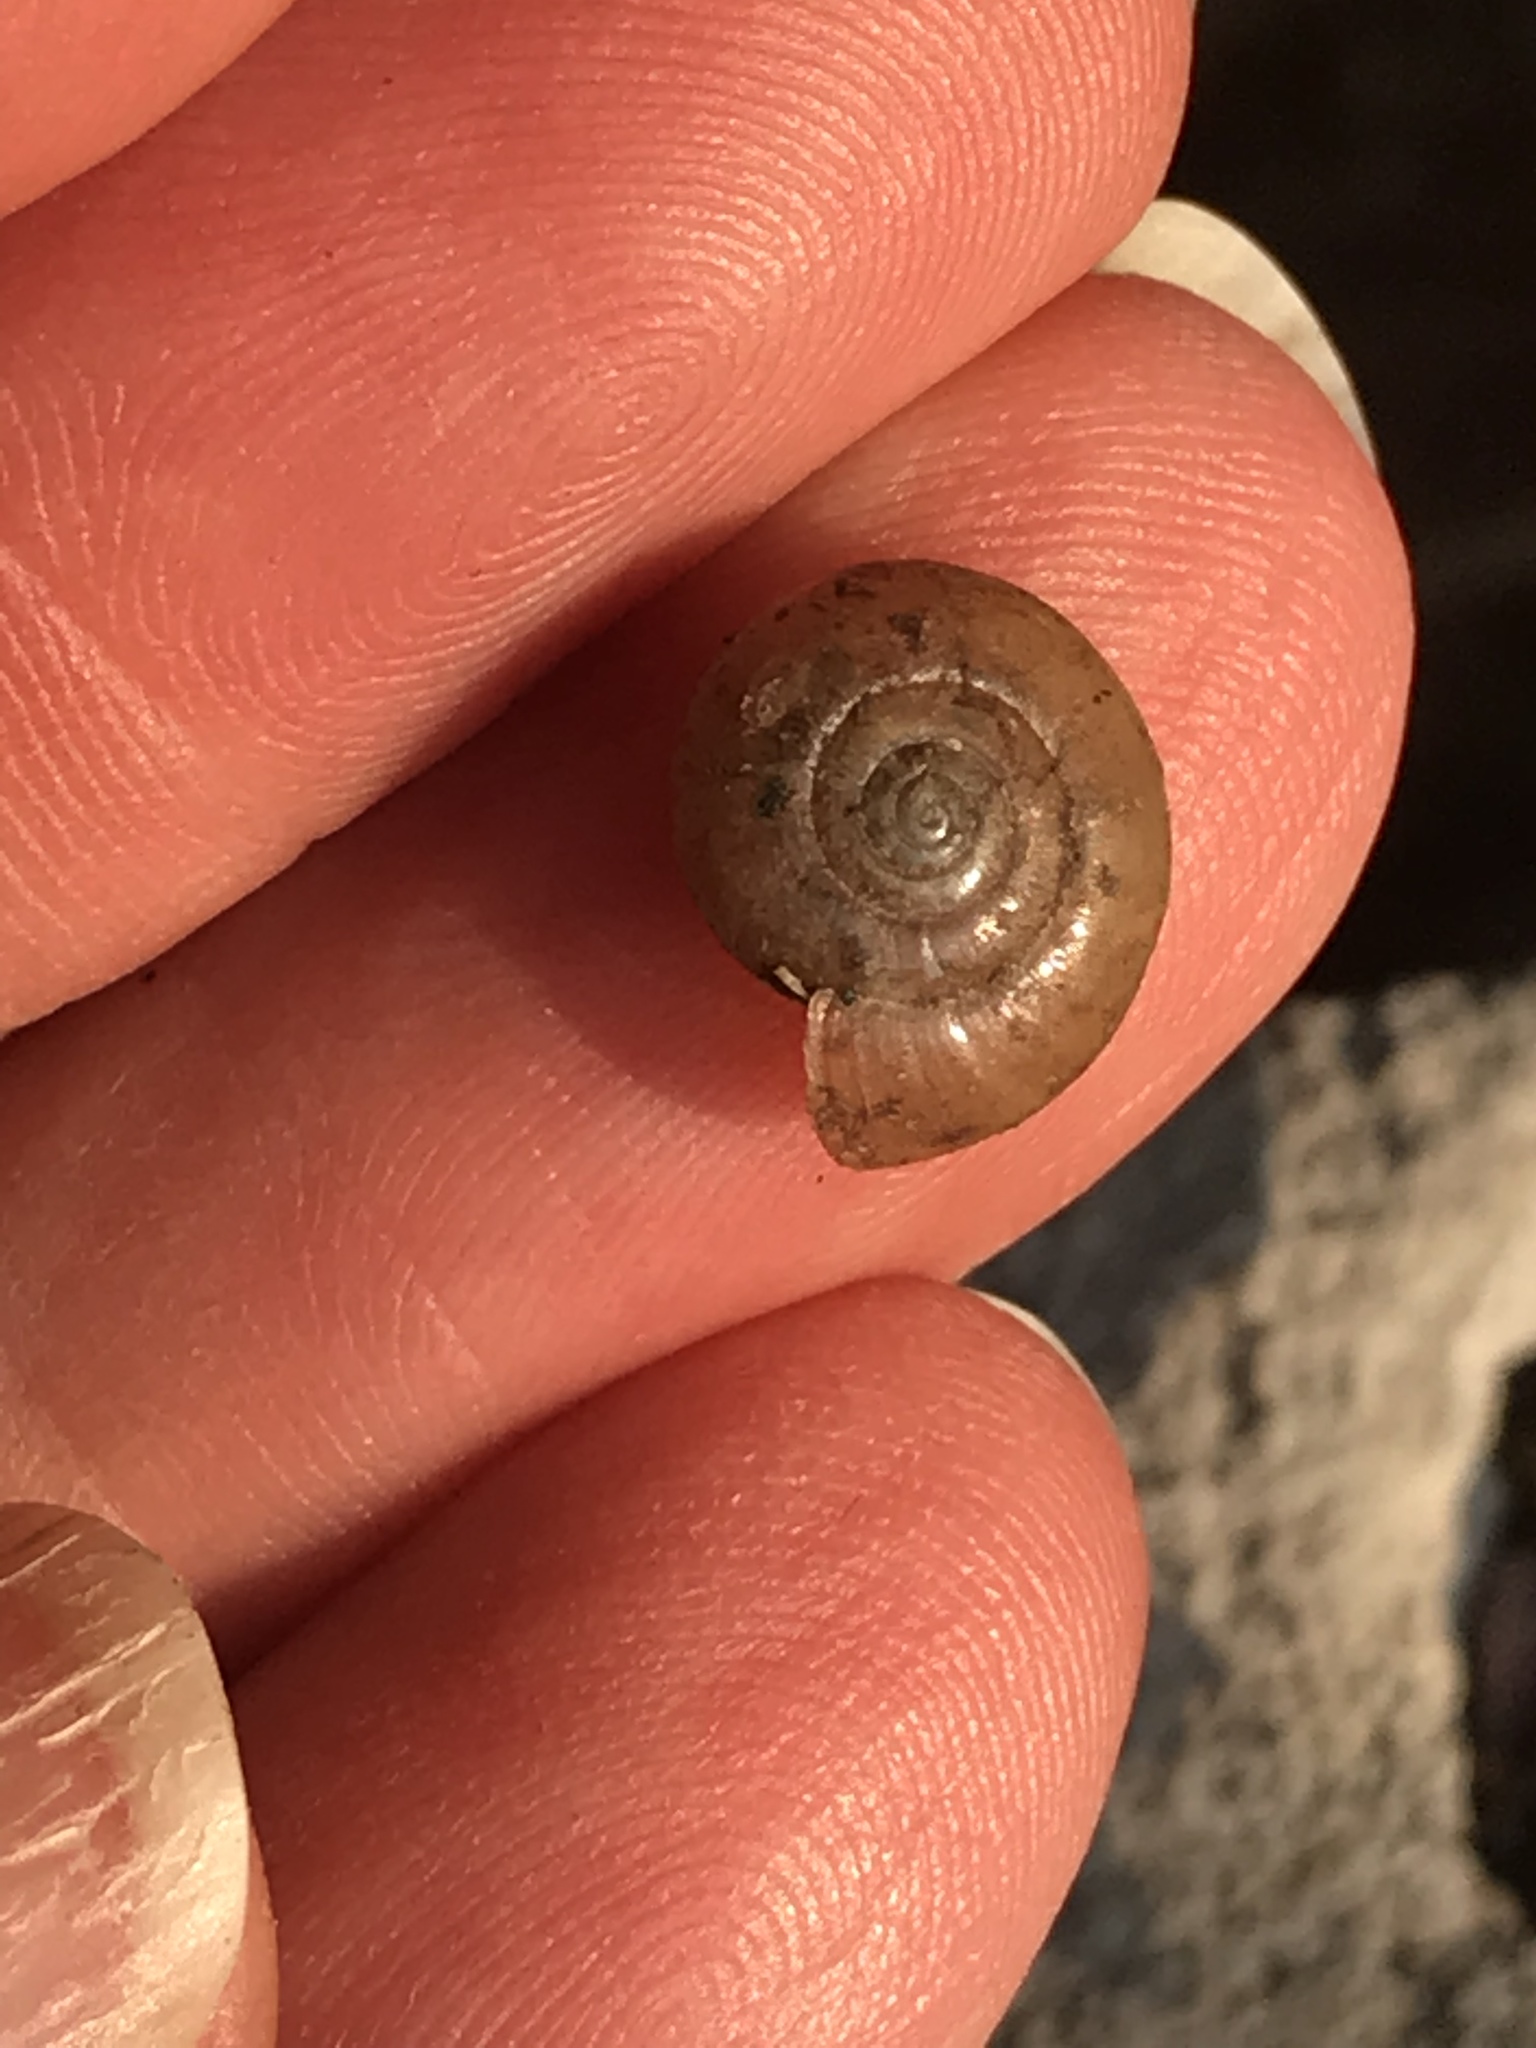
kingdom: Animalia
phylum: Mollusca
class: Gastropoda
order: Stylommatophora
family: Oxychilidae
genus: Oxychilus
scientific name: Oxychilus draparnaudi
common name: Draparnaud's glass snail
